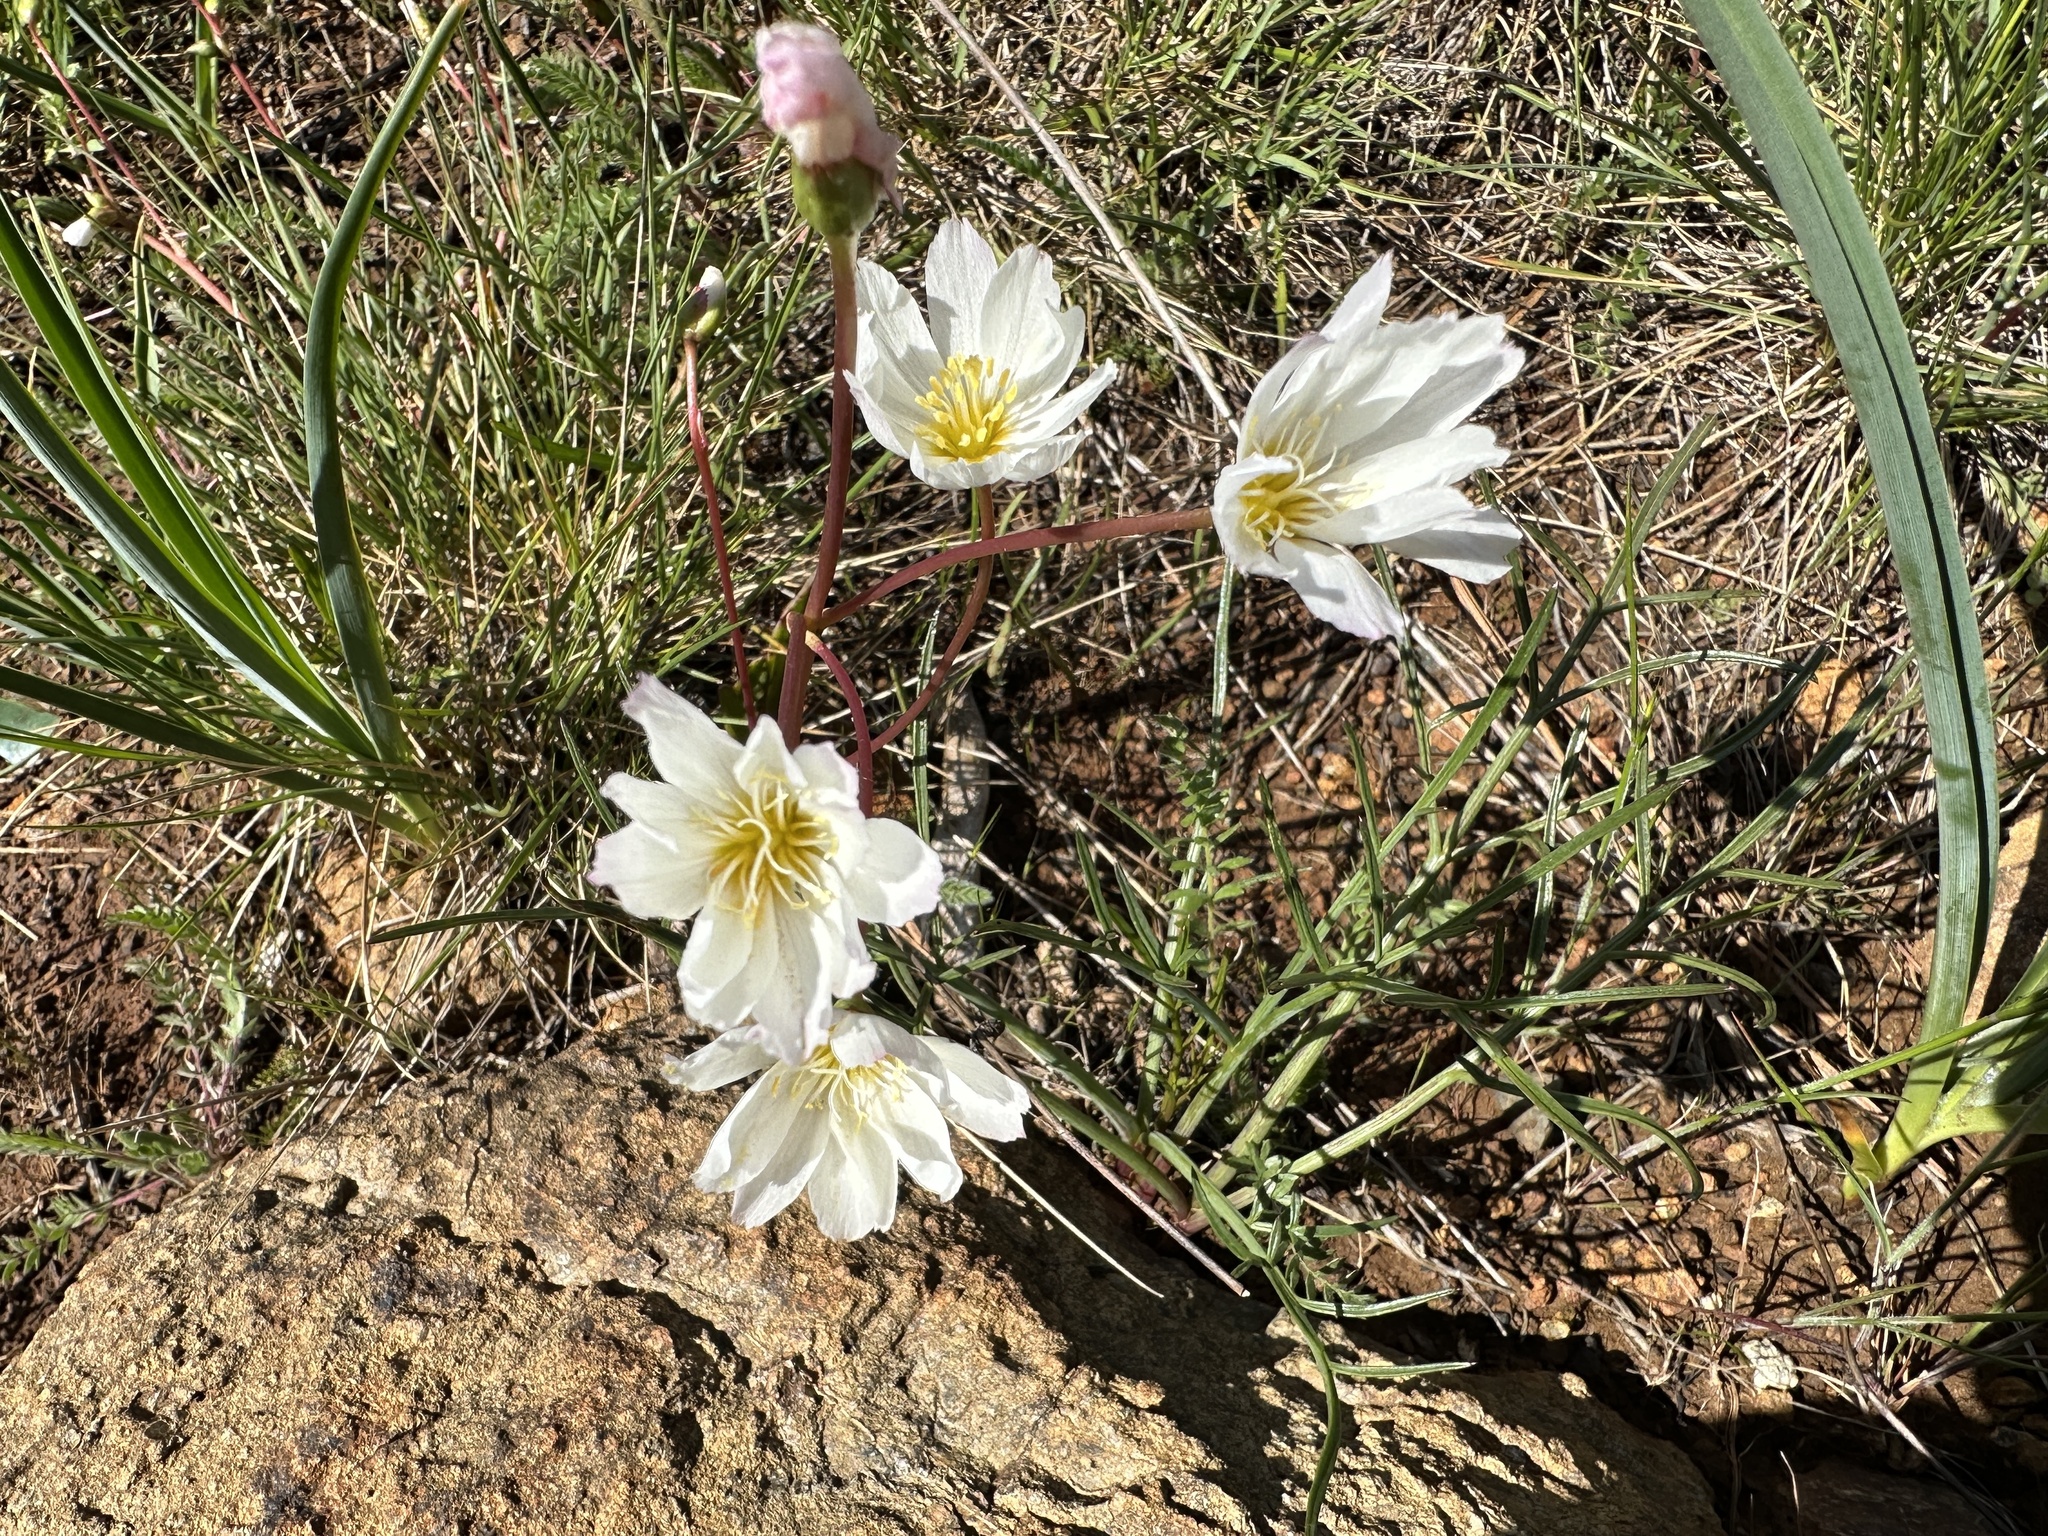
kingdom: Plantae
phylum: Tracheophyta
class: Magnoliopsida
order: Caryophyllales
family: Montiaceae
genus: Lewisia
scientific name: Lewisia oppositifolia
